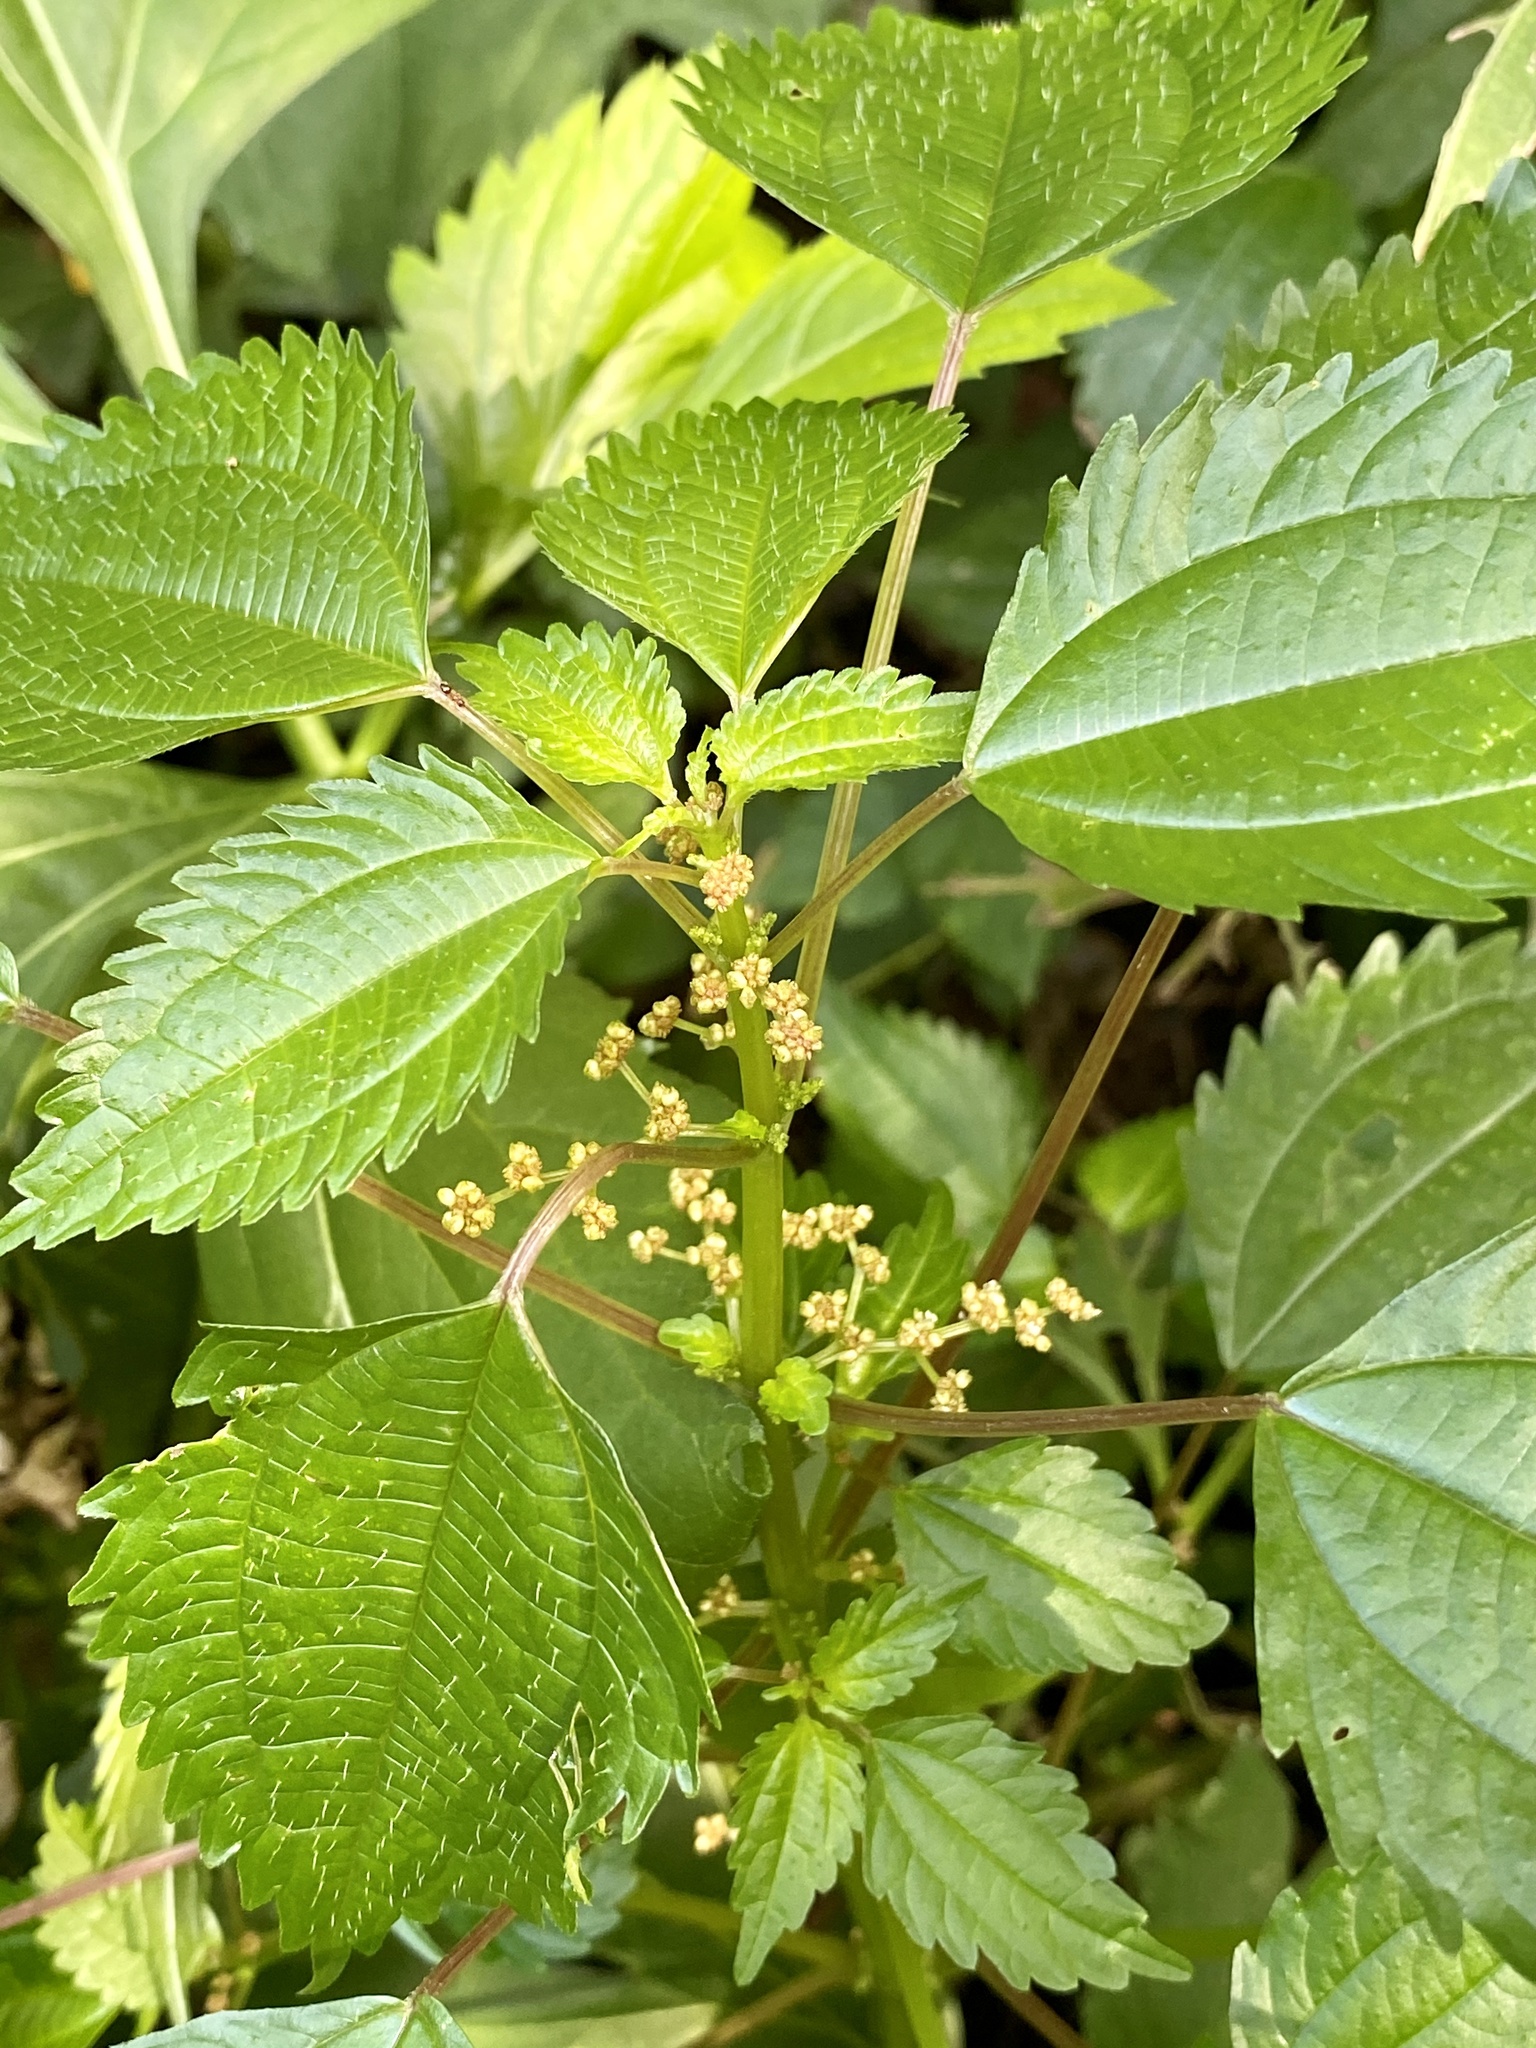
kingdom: Plantae
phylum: Tracheophyta
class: Magnoliopsida
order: Rosales
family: Urticaceae
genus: Pilea
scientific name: Pilea pumila
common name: Clearweed
